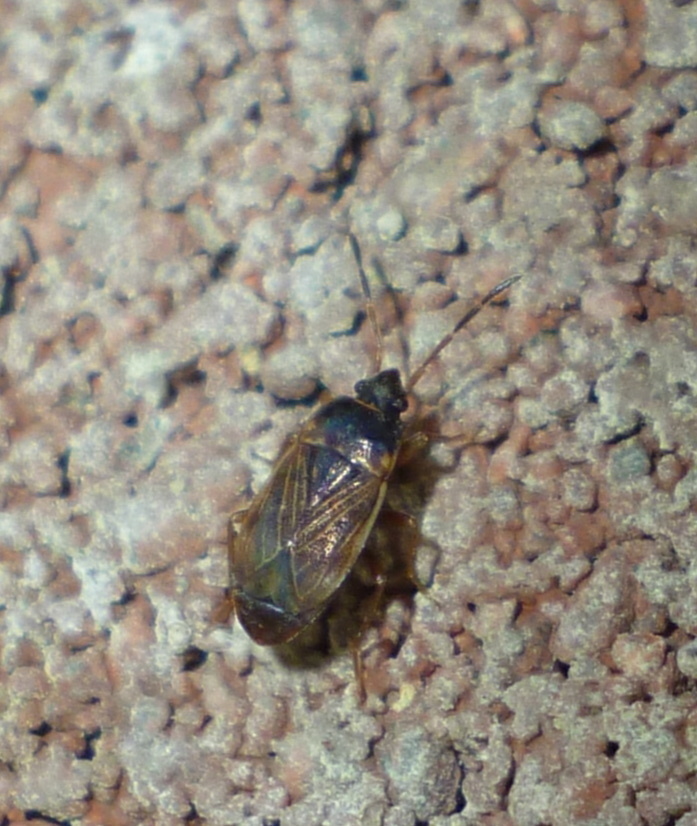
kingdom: Animalia
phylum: Arthropoda
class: Insecta
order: Hemiptera
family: Rhyparochromidae
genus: Cryphula
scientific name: Cryphula trimaculata
